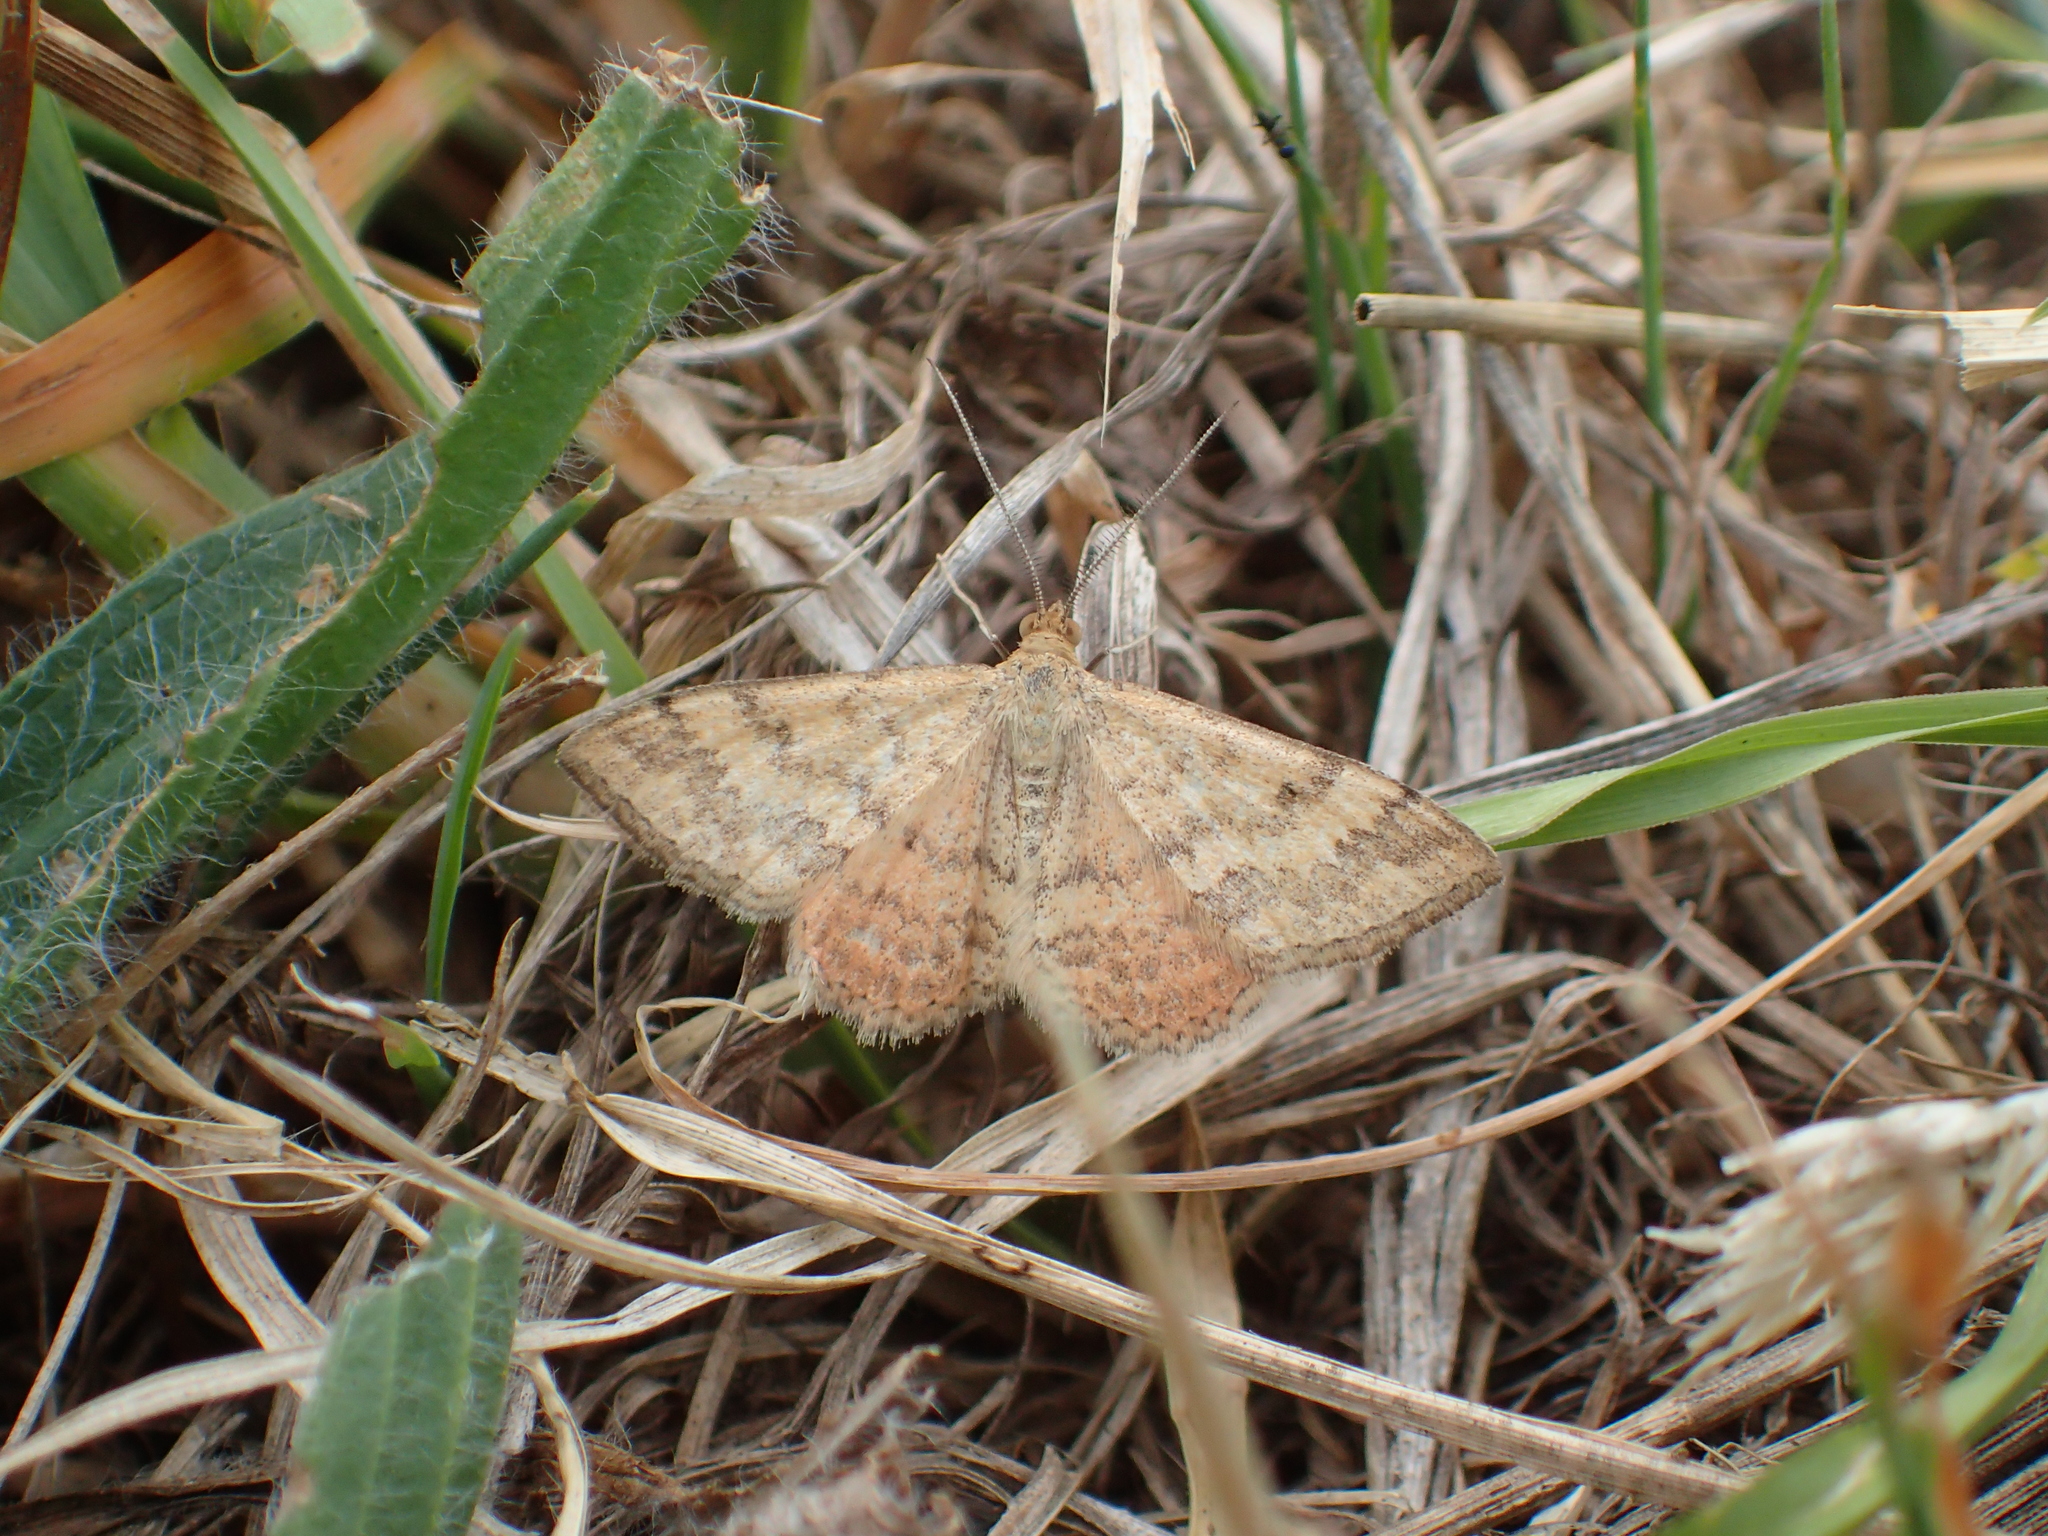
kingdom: Animalia
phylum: Arthropoda
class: Insecta
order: Lepidoptera
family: Geometridae
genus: Scopula
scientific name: Scopula rubraria
